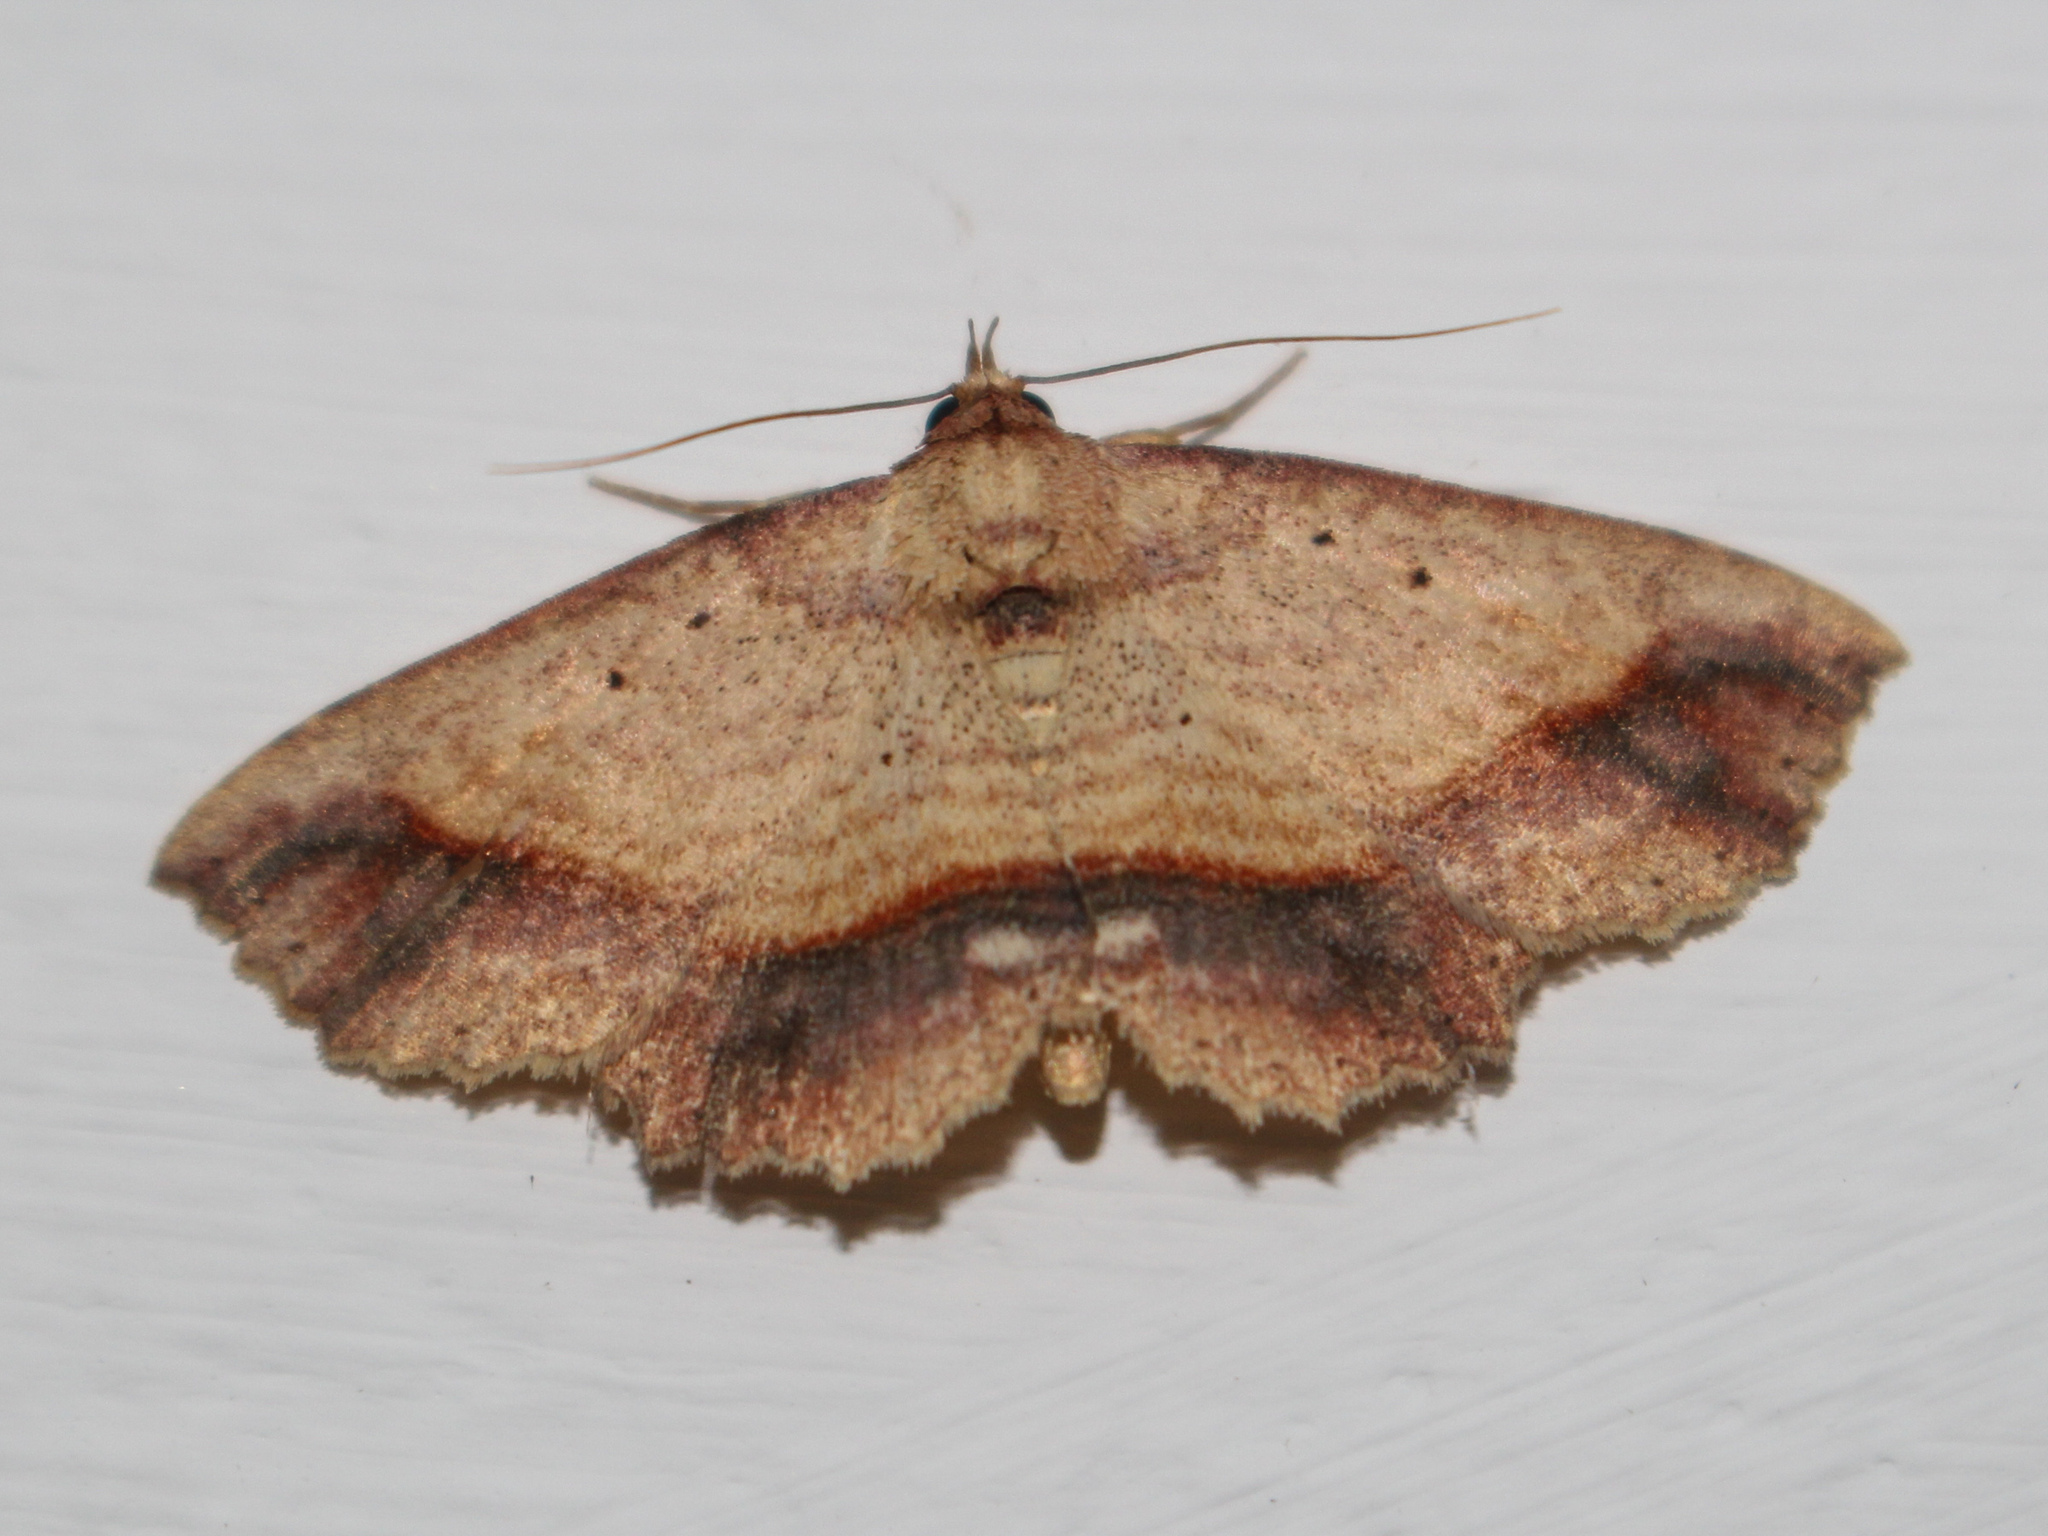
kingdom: Animalia
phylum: Arthropoda
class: Insecta
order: Lepidoptera
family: Erebidae
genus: Tamba
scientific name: Tamba cosmoloma
